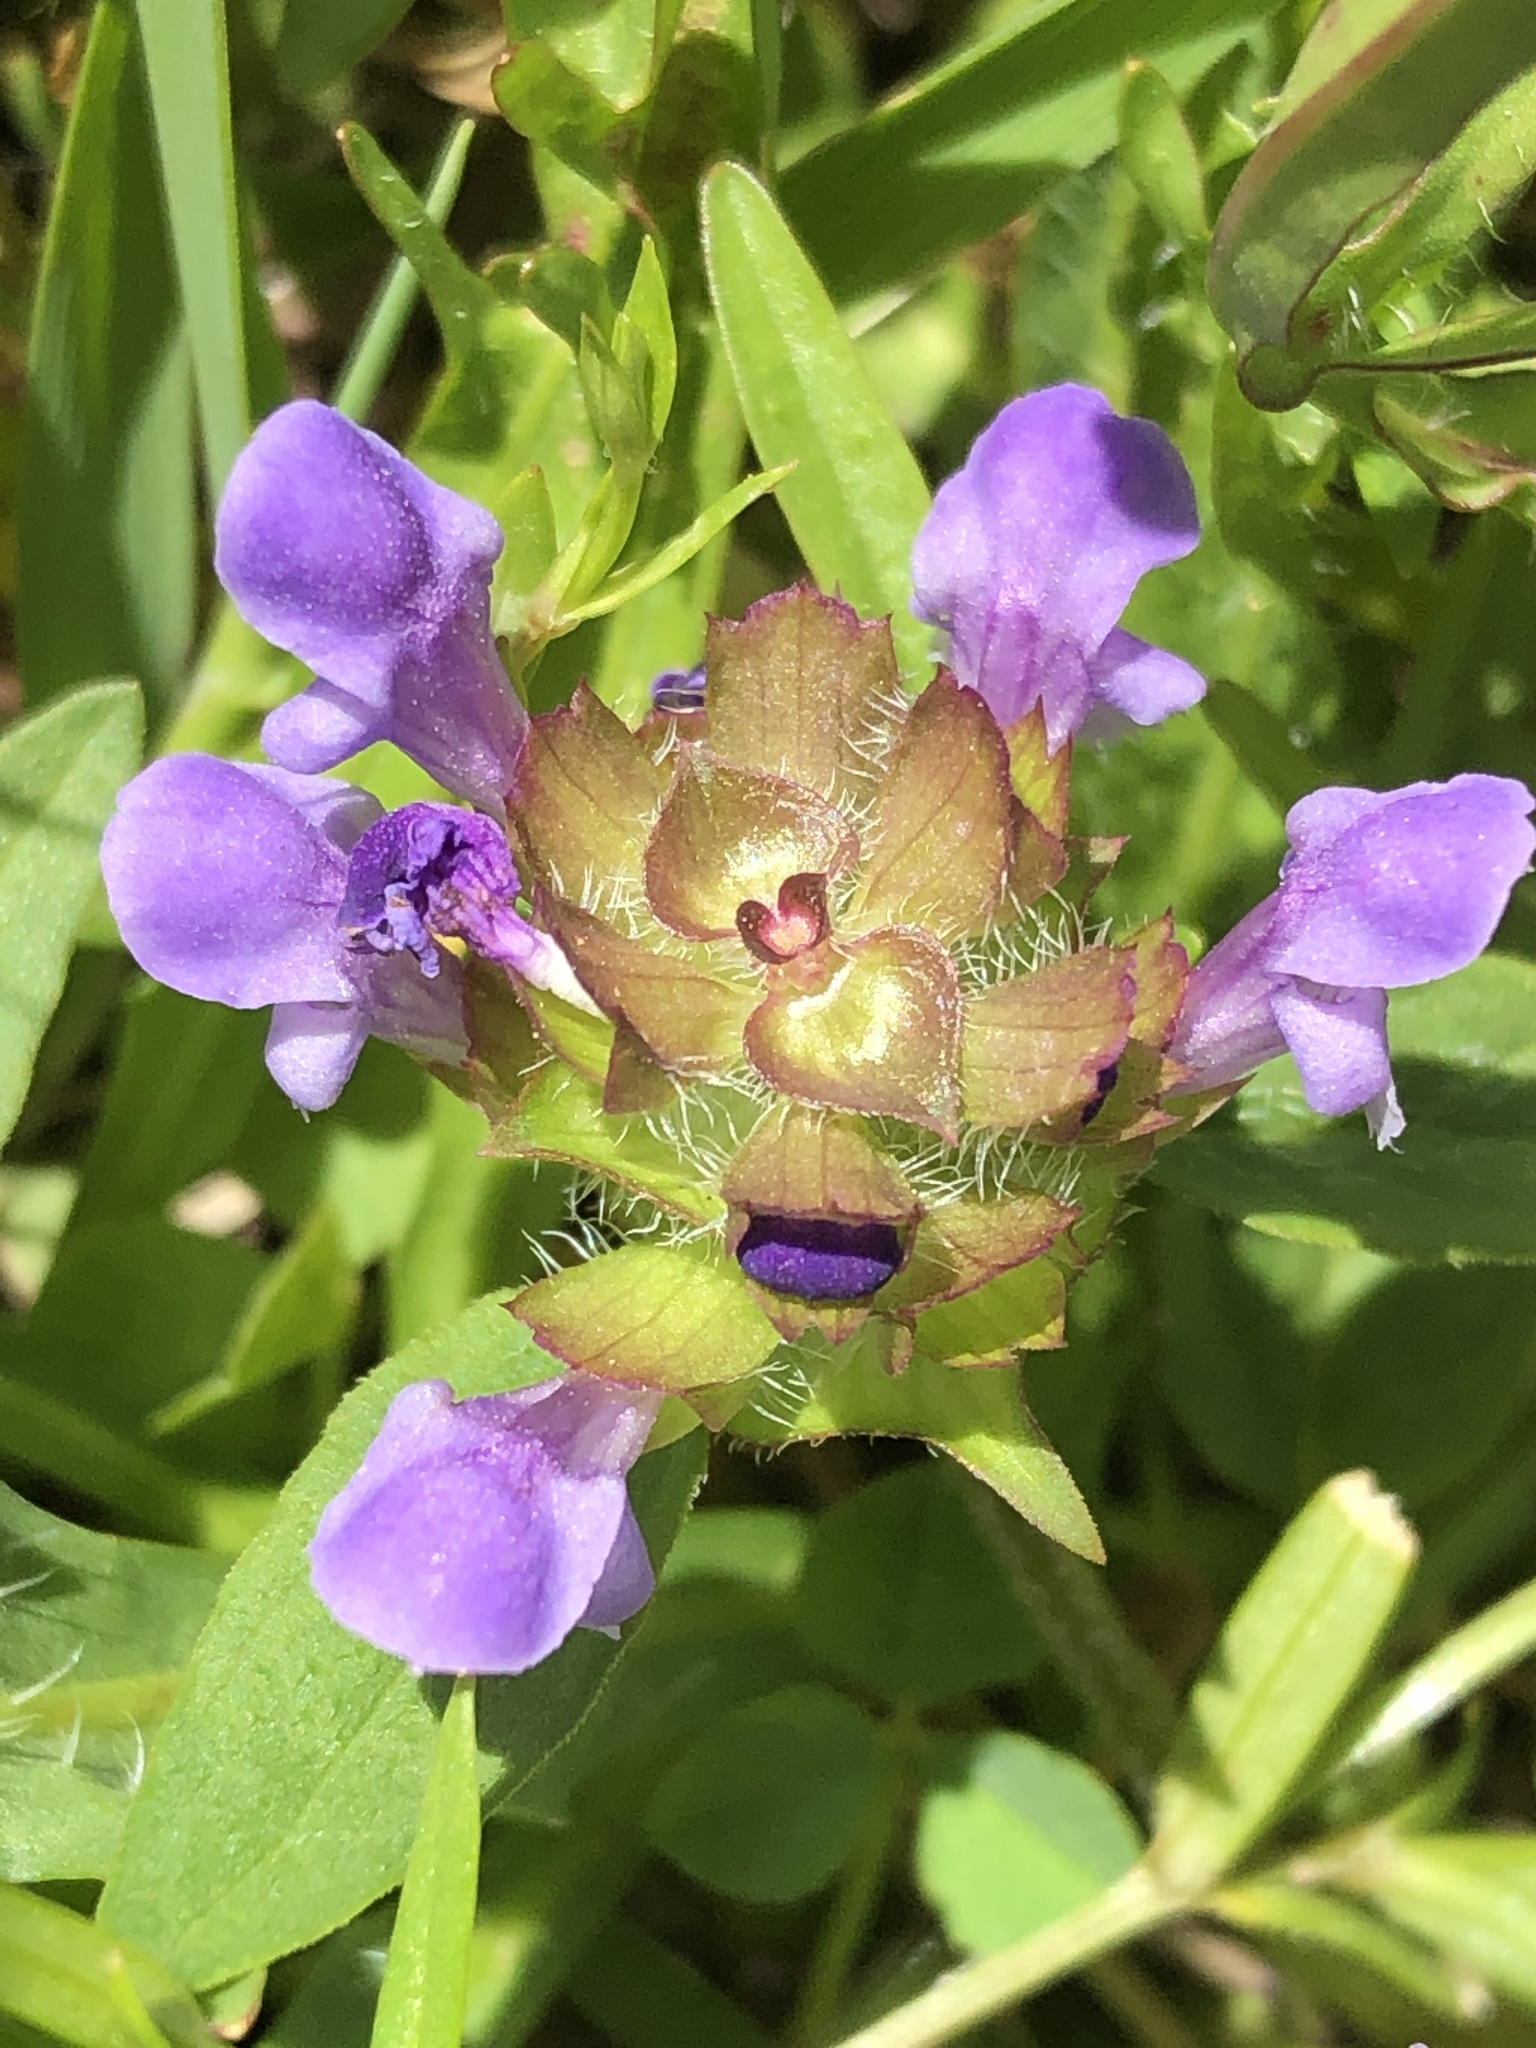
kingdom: Plantae
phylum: Tracheophyta
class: Magnoliopsida
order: Lamiales
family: Lamiaceae
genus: Prunella
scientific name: Prunella vulgaris
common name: Heal-all
